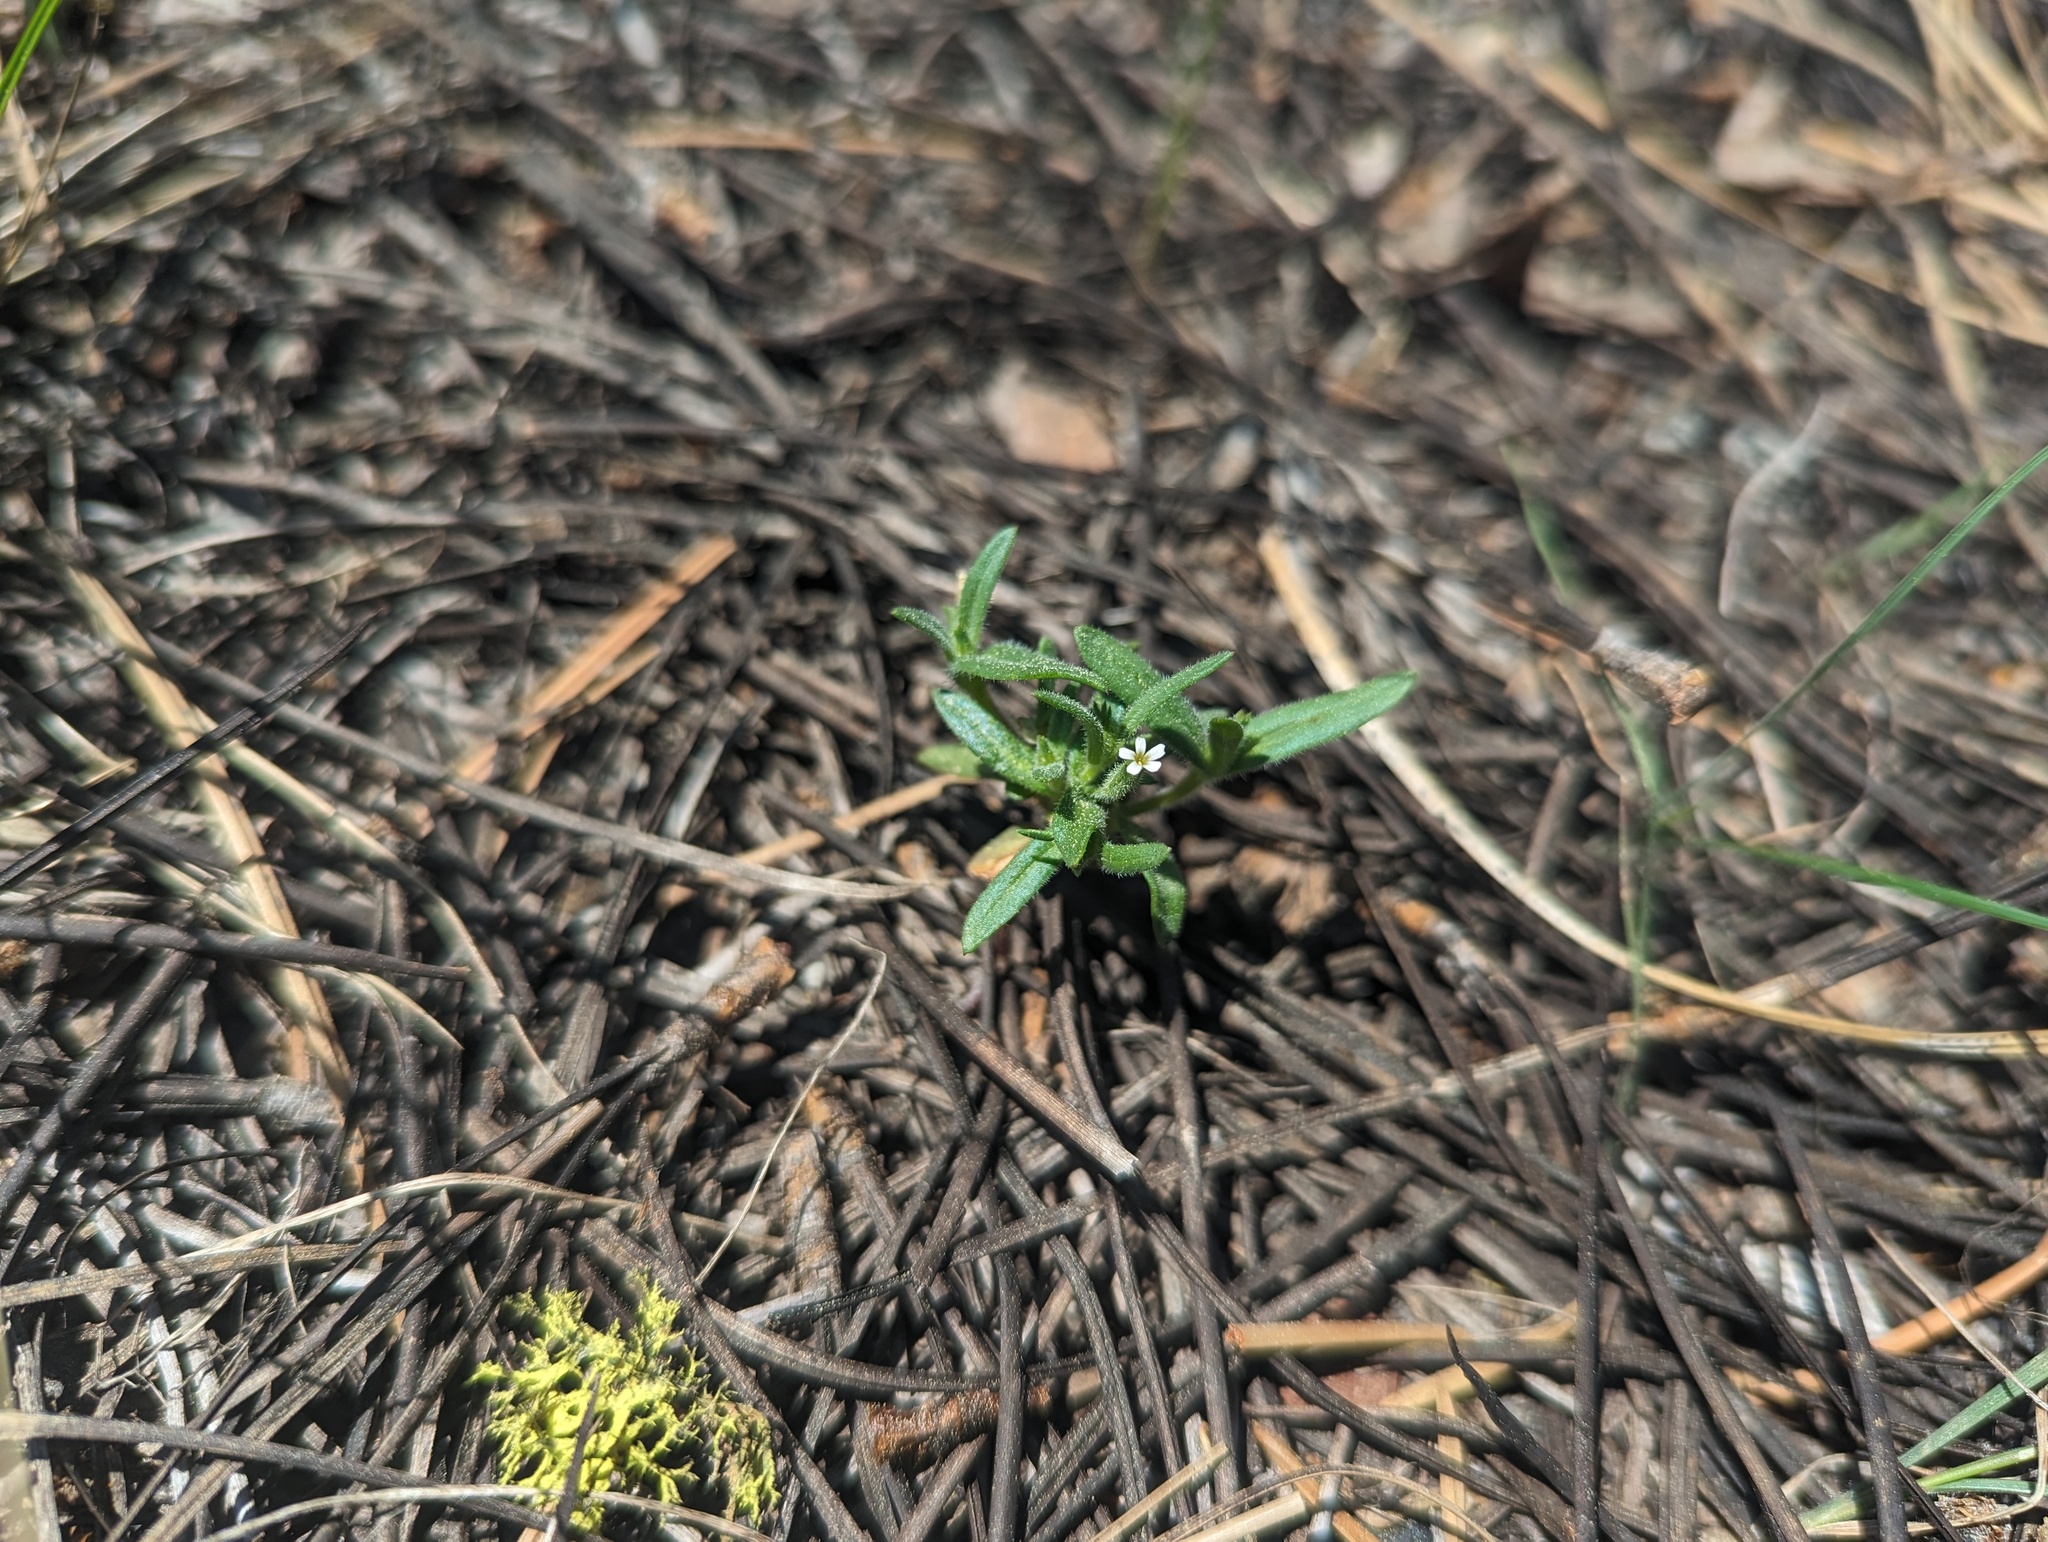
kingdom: Plantae
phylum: Tracheophyta
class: Magnoliopsida
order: Ericales
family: Polemoniaceae
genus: Phlox
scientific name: Phlox gracilis
